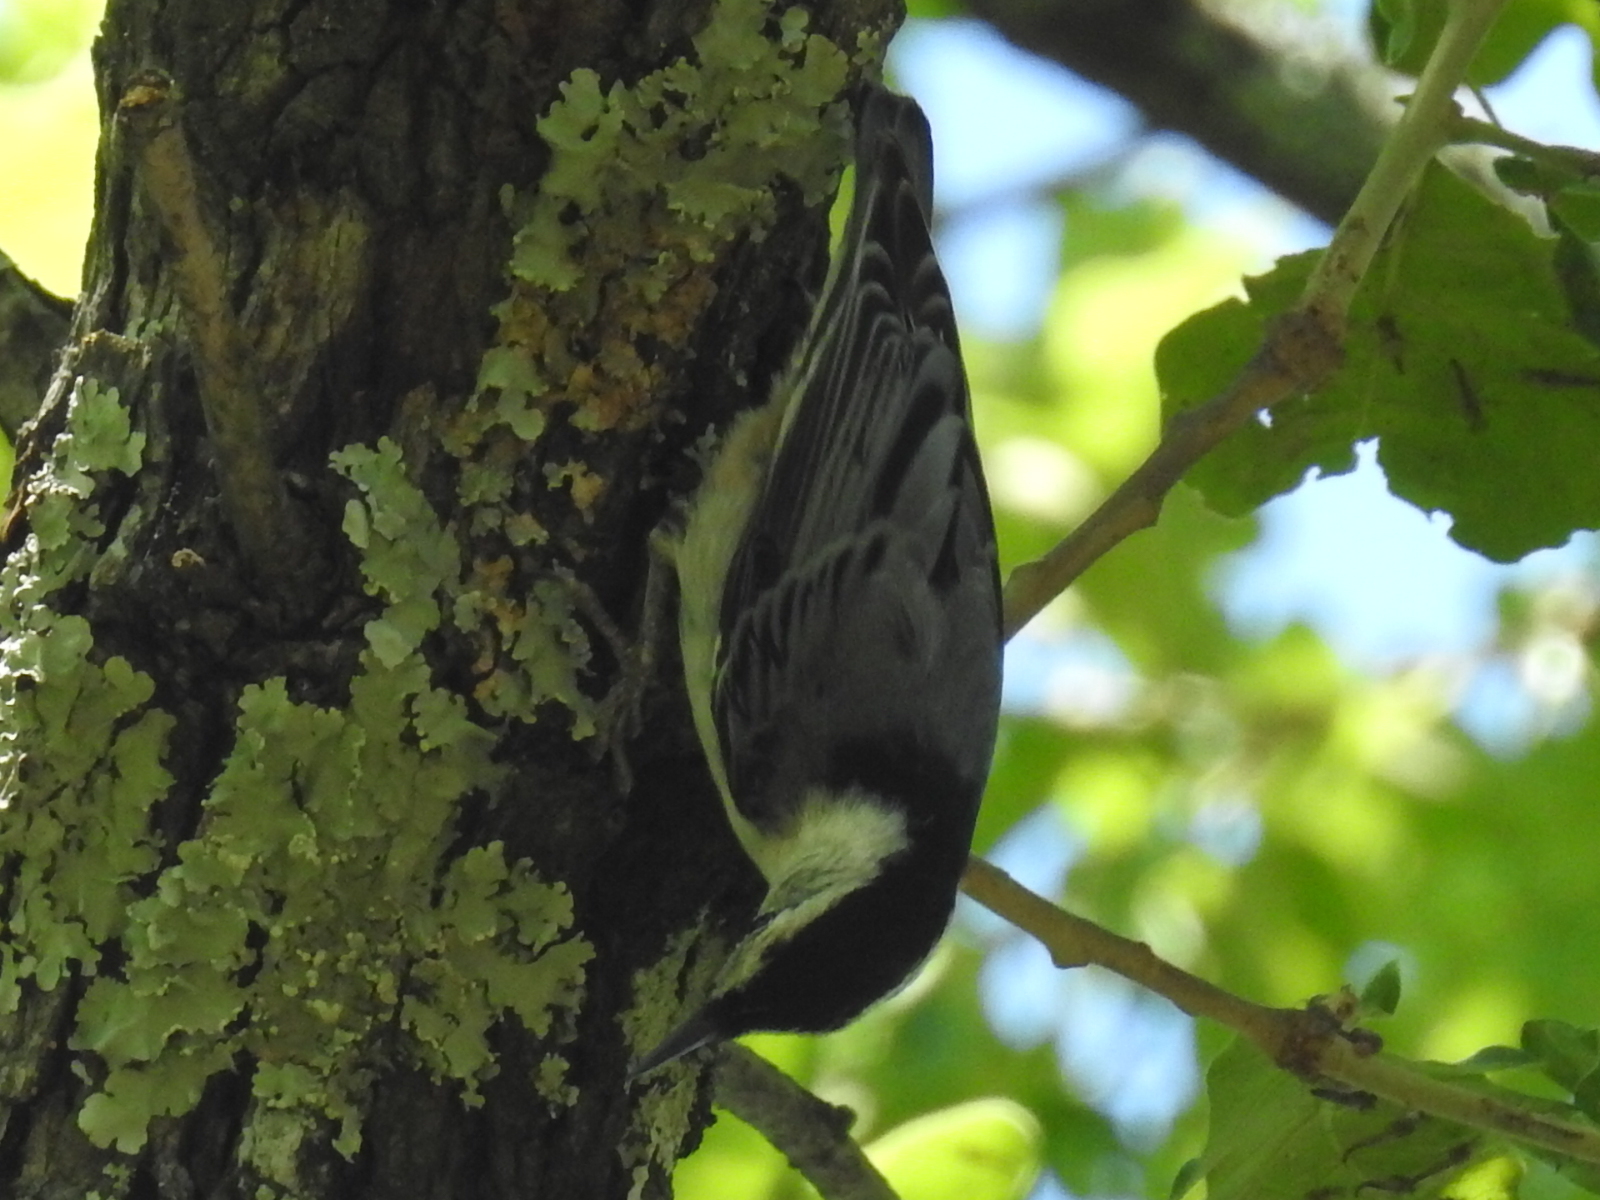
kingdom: Animalia
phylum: Chordata
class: Aves
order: Passeriformes
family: Sittidae
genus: Sitta
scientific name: Sitta carolinensis
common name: White-breasted nuthatch
